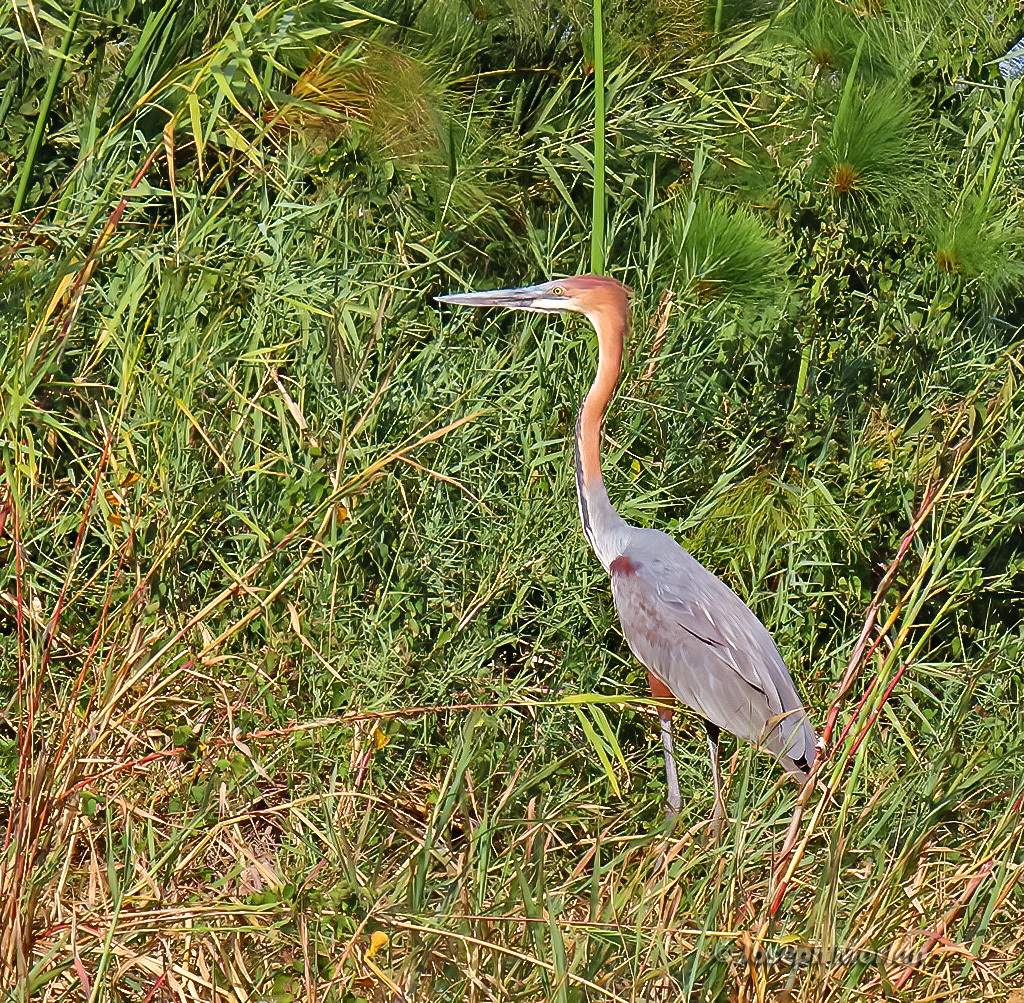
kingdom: Animalia
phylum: Chordata
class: Aves
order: Pelecaniformes
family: Ardeidae
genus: Ardea
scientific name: Ardea goliath
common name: Goliath heron
